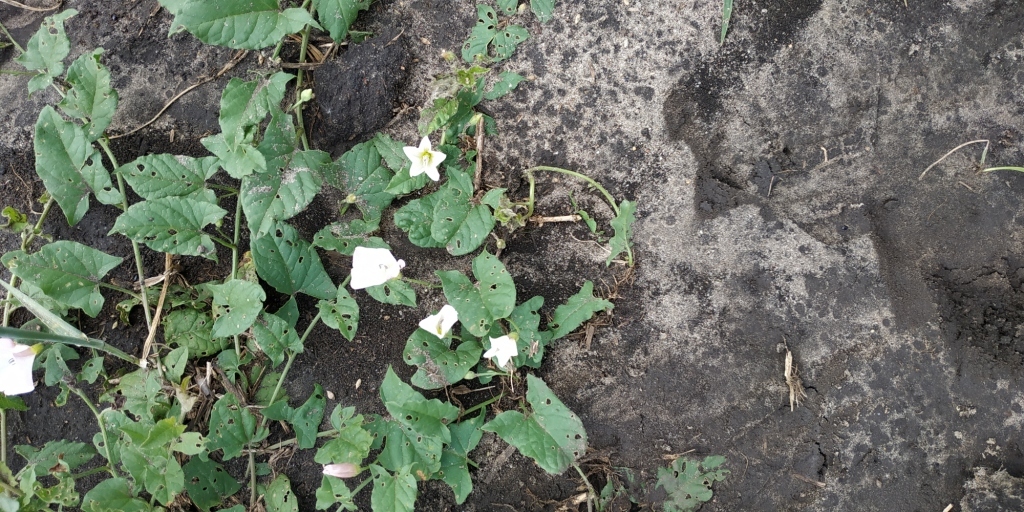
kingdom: Plantae
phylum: Tracheophyta
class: Magnoliopsida
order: Solanales
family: Convolvulaceae
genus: Convolvulus
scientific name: Convolvulus arvensis
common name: Field bindweed
